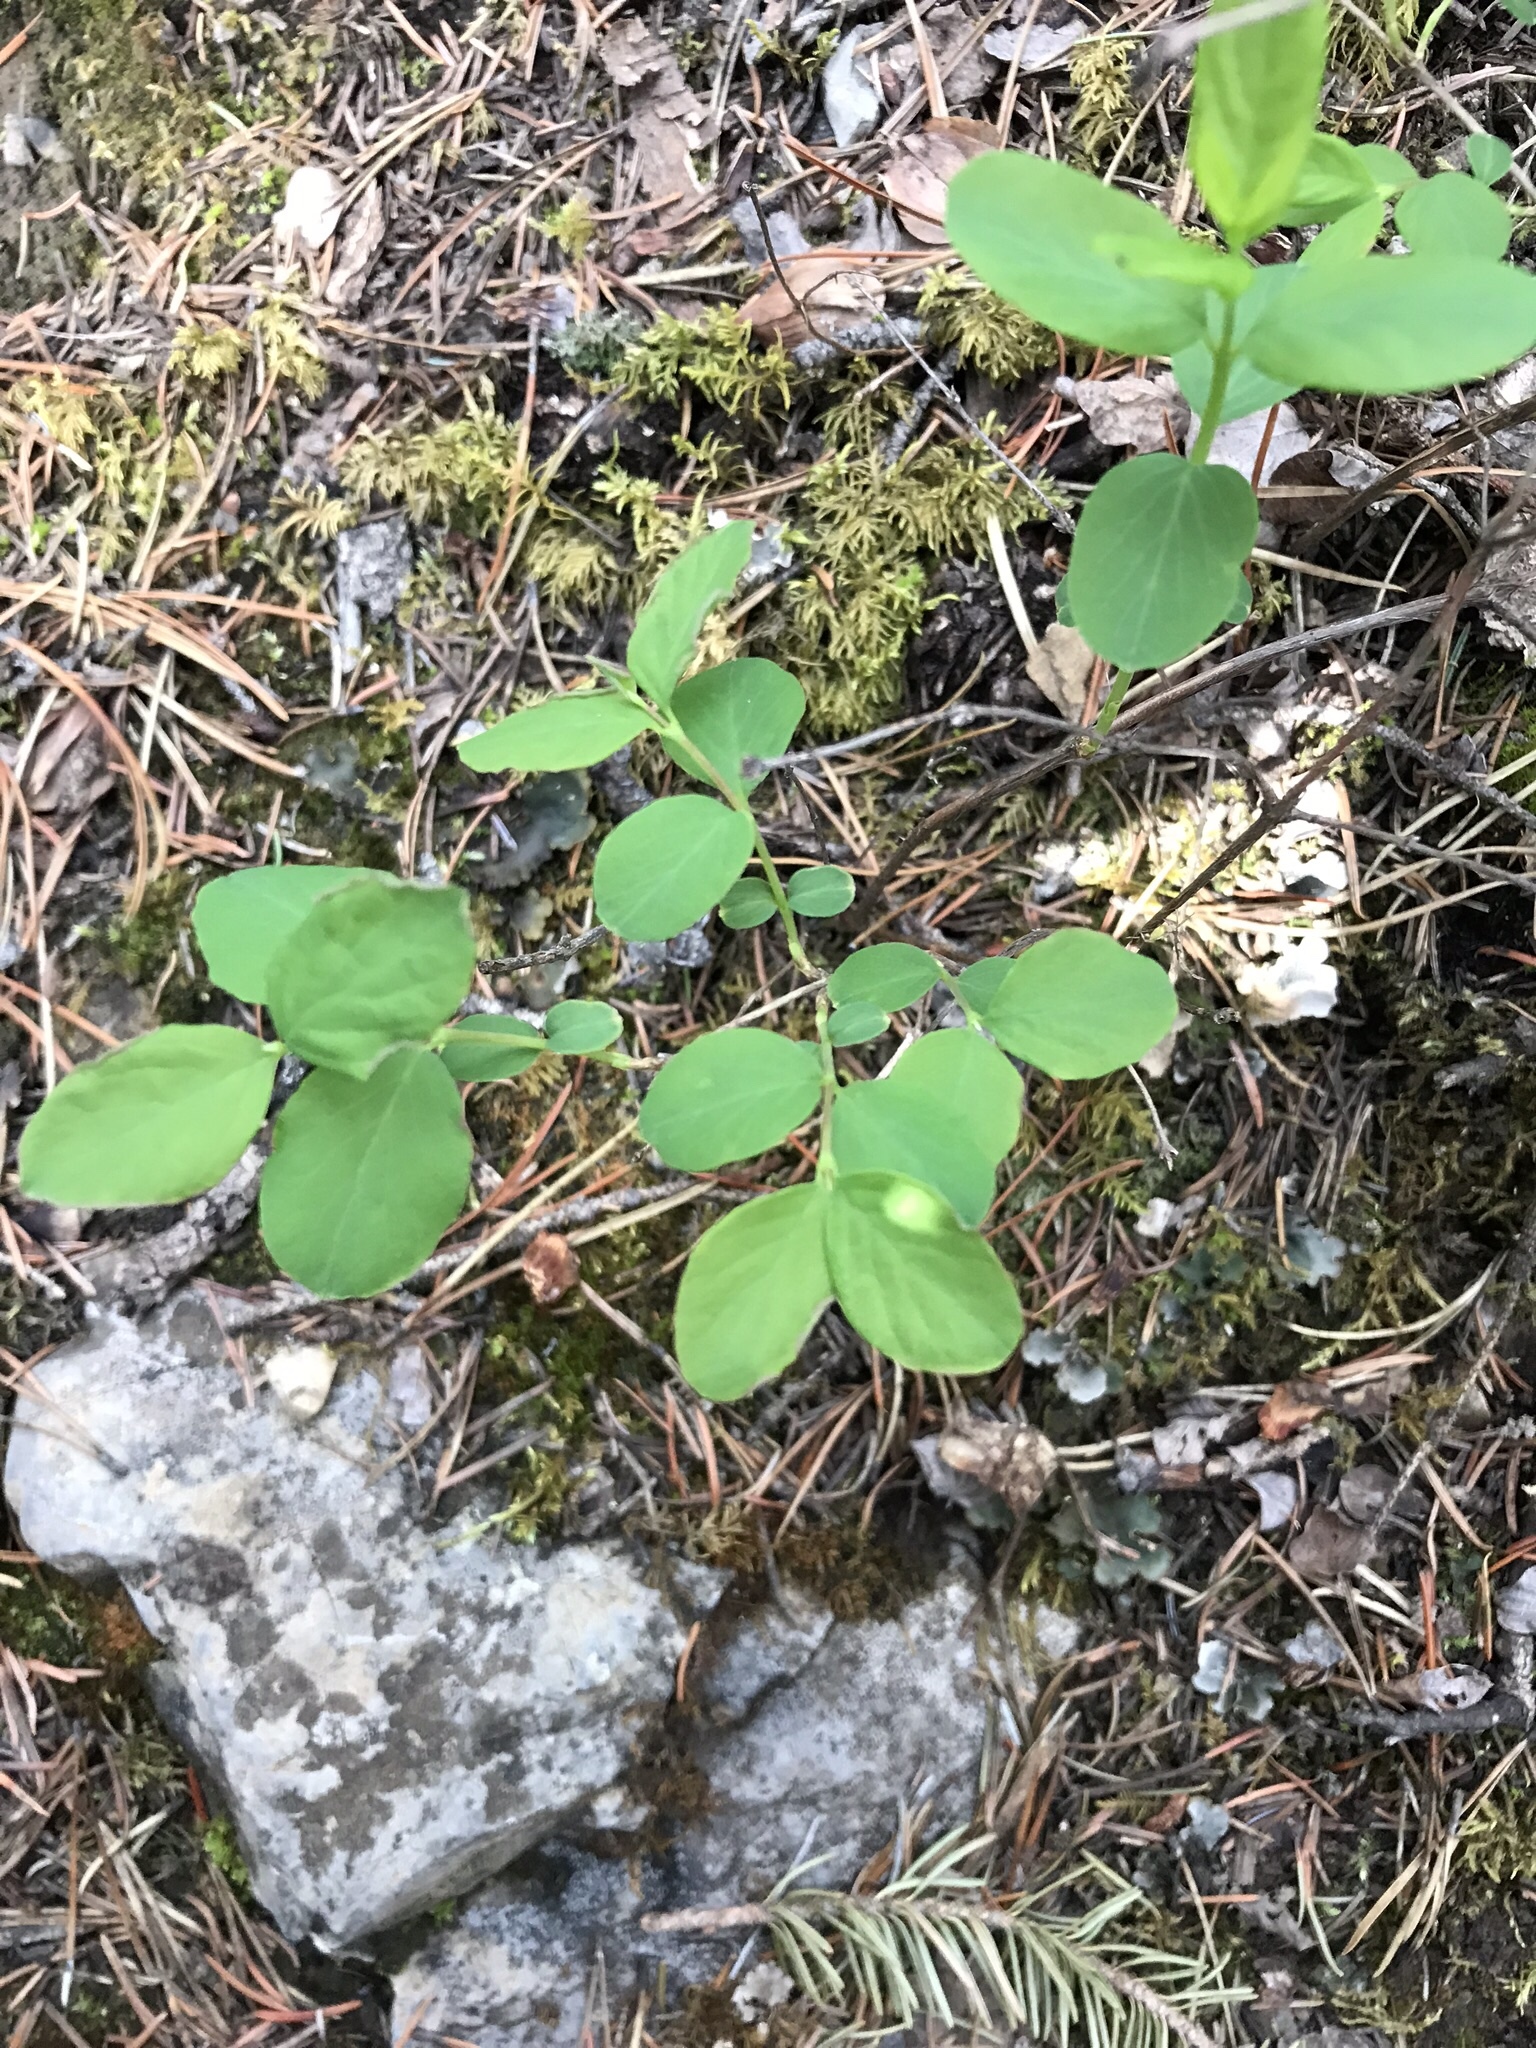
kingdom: Plantae
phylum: Tracheophyta
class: Magnoliopsida
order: Dipsacales
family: Caprifoliaceae
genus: Symphoricarpos
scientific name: Symphoricarpos albus
